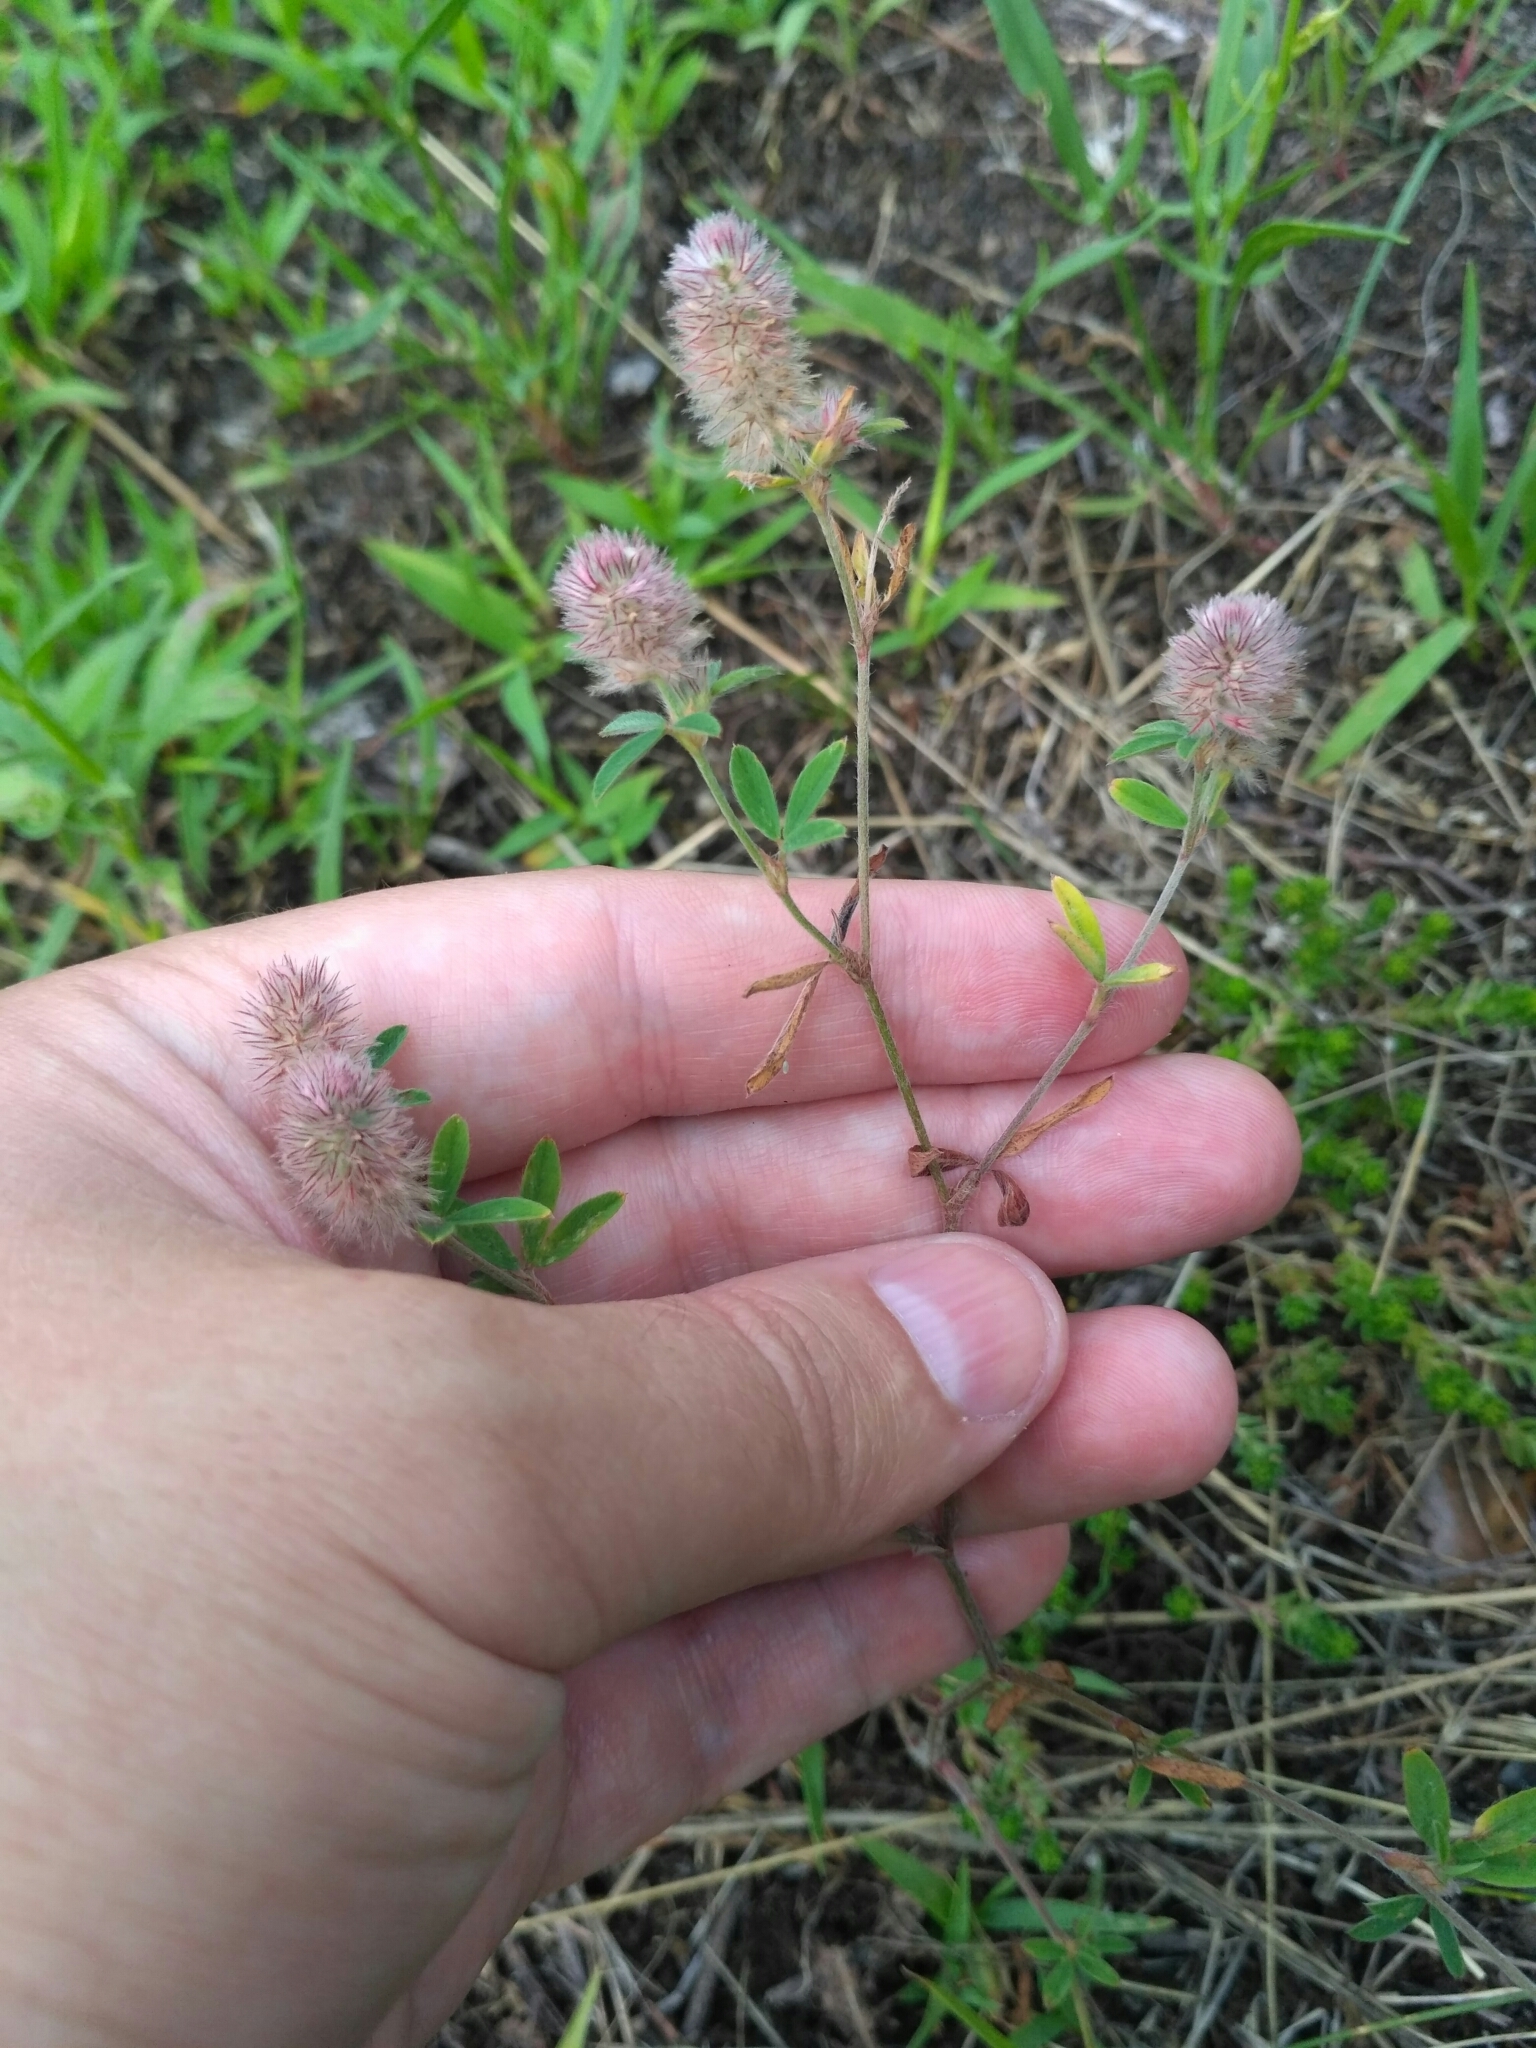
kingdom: Plantae
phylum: Tracheophyta
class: Magnoliopsida
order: Fabales
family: Fabaceae
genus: Trifolium
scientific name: Trifolium arvense
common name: Hare's-foot clover
